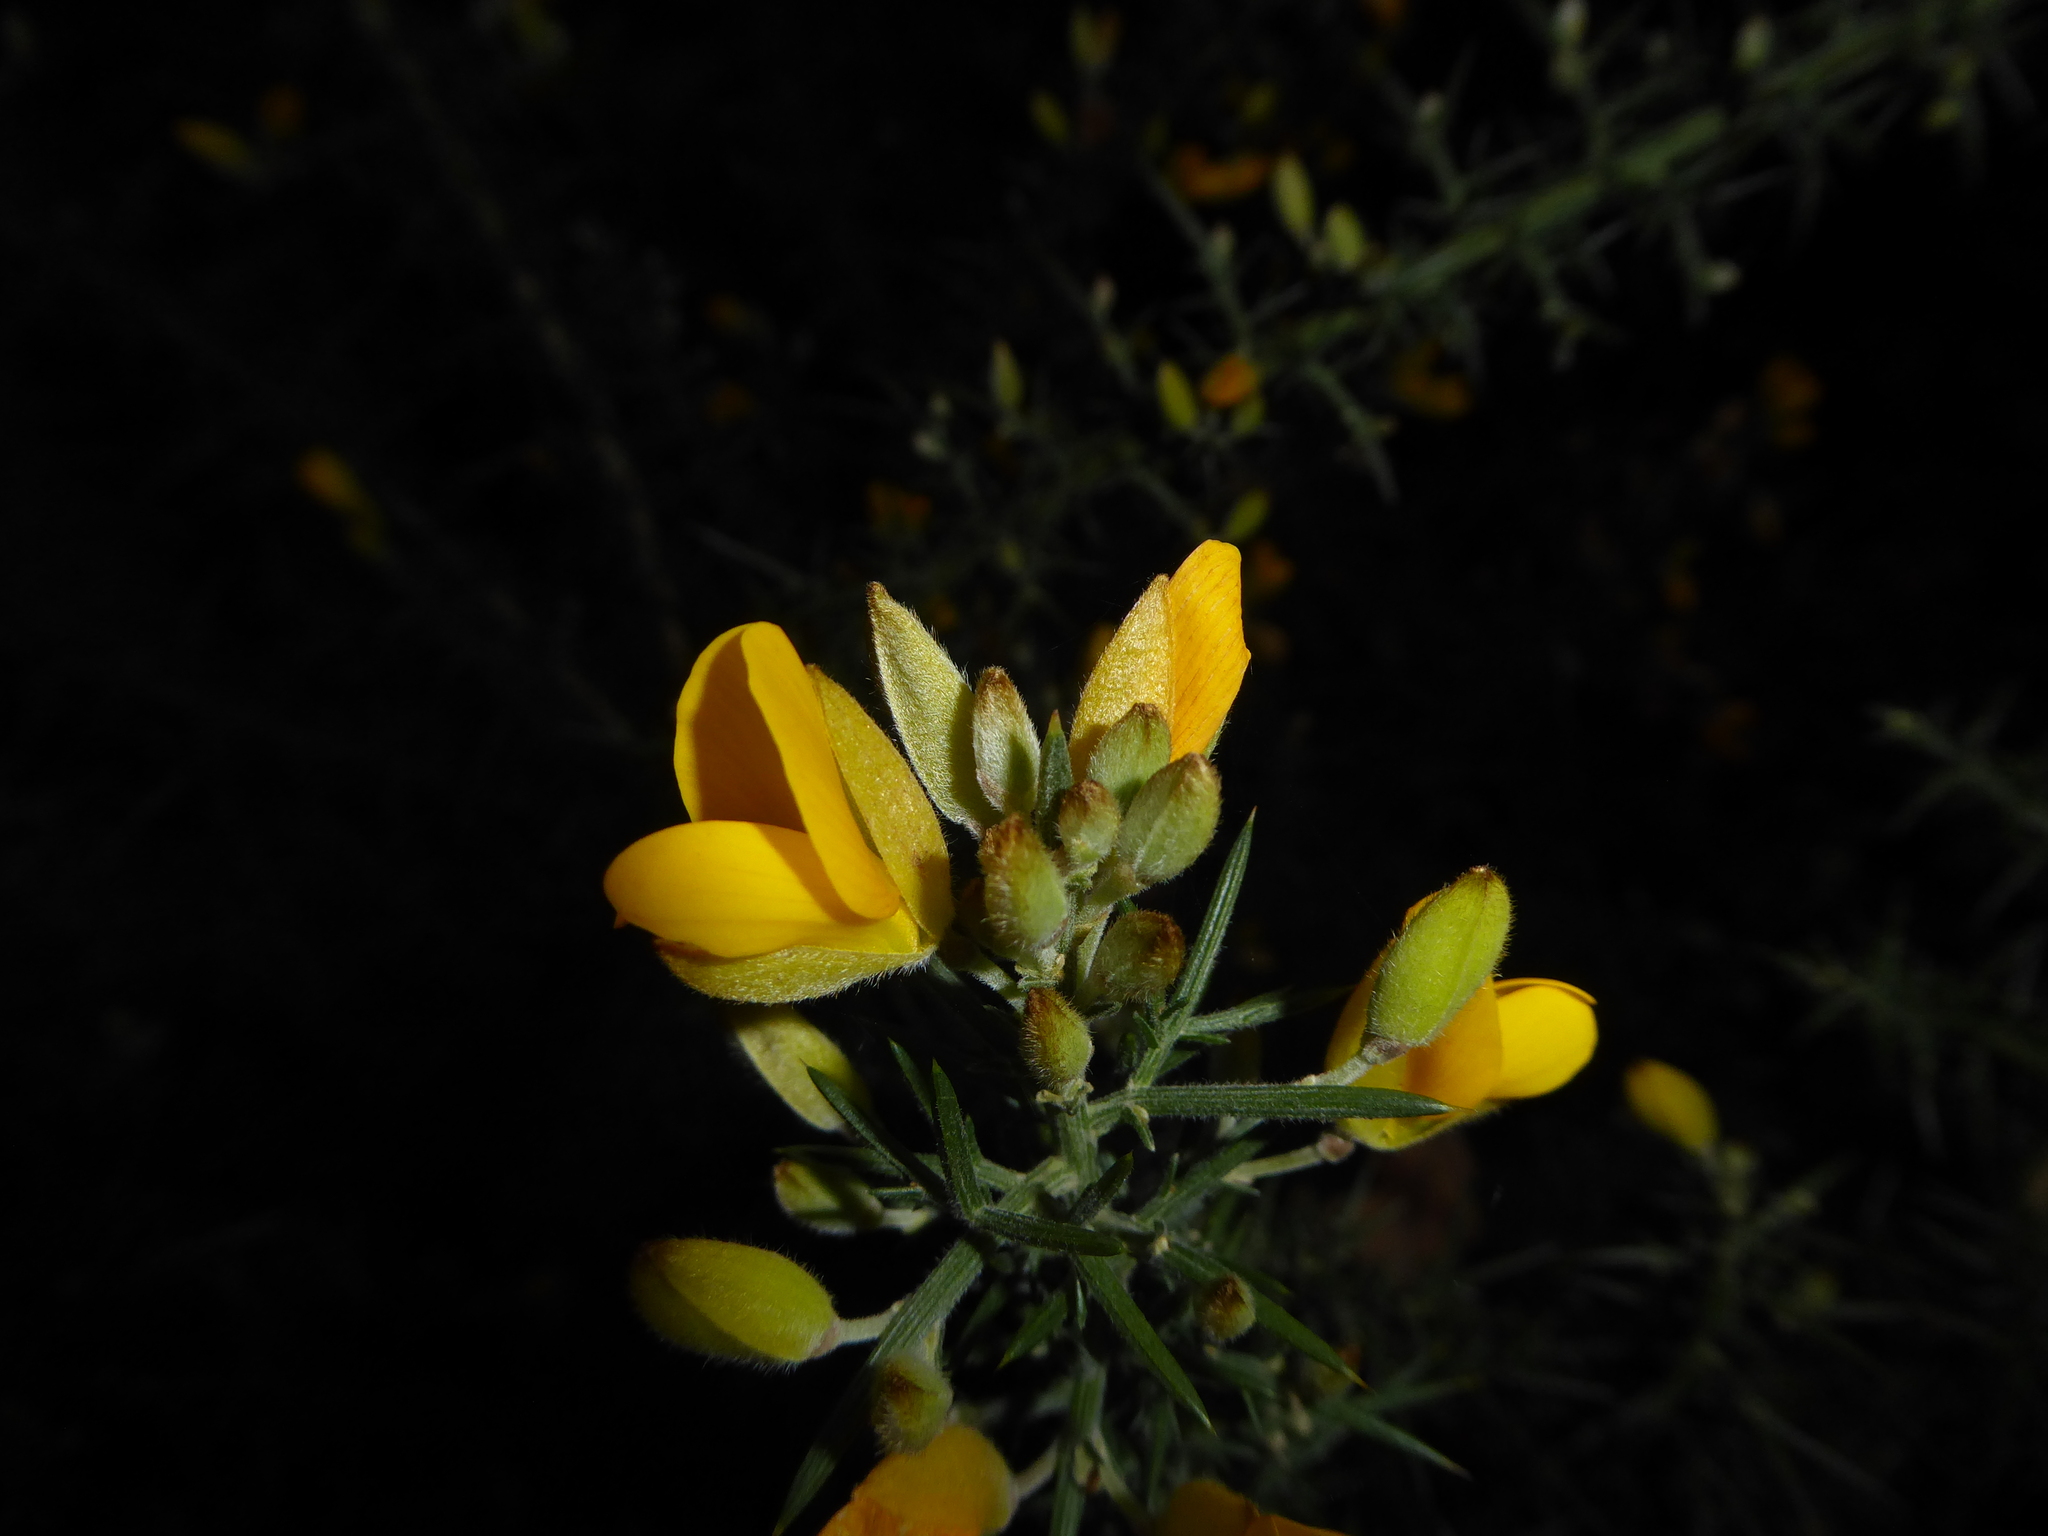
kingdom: Plantae
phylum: Tracheophyta
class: Magnoliopsida
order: Fabales
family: Fabaceae
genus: Ulex
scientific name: Ulex europaeus
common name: Common gorse
